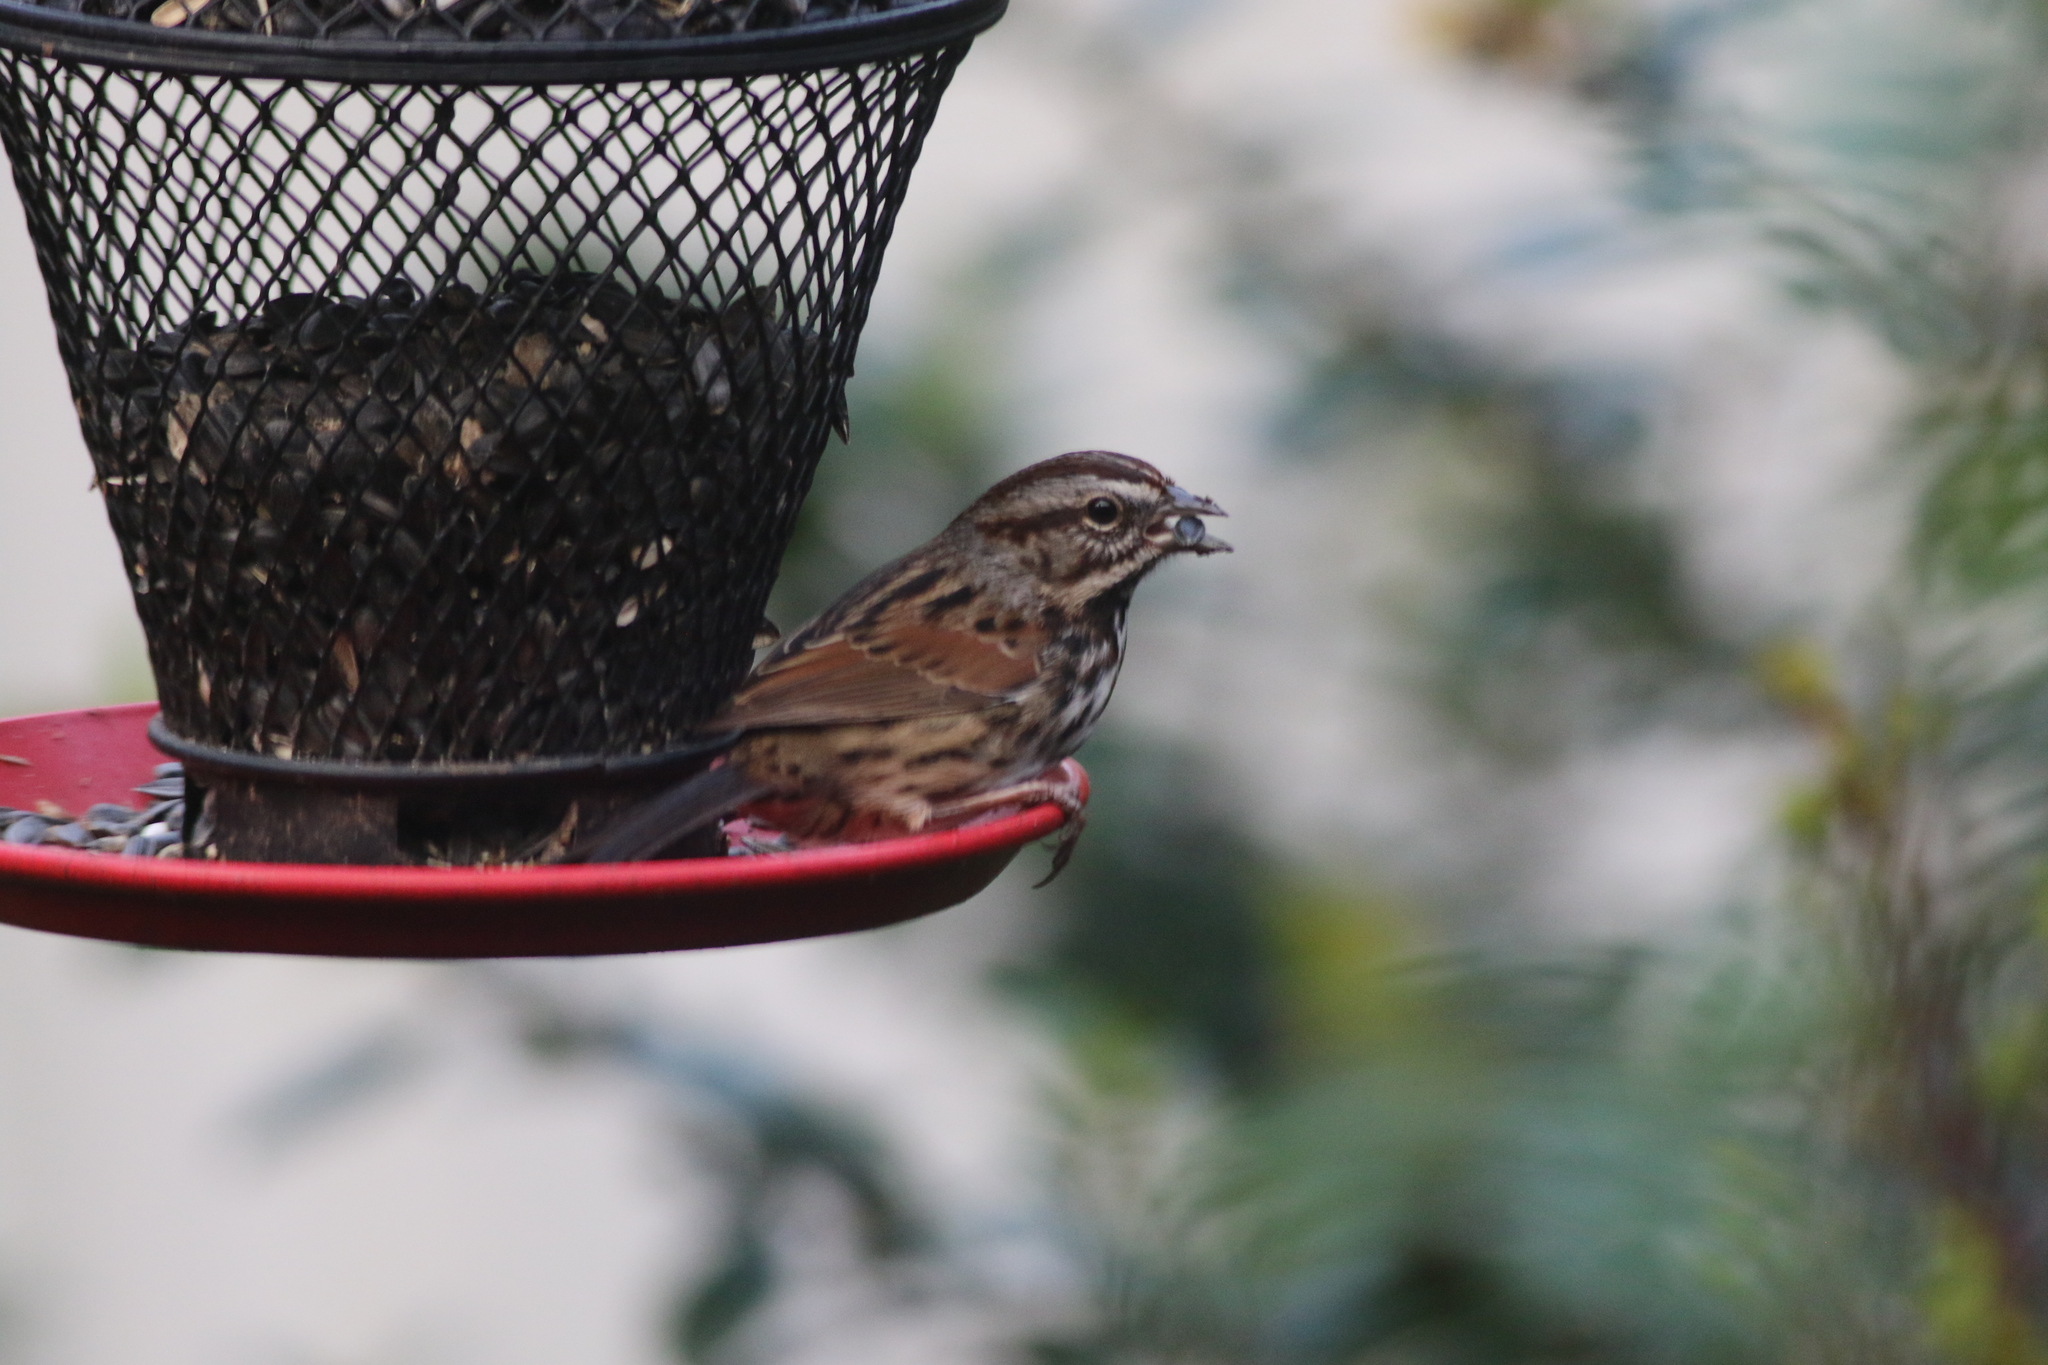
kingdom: Animalia
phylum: Chordata
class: Aves
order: Passeriformes
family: Passerellidae
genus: Melospiza
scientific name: Melospiza melodia
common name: Song sparrow
